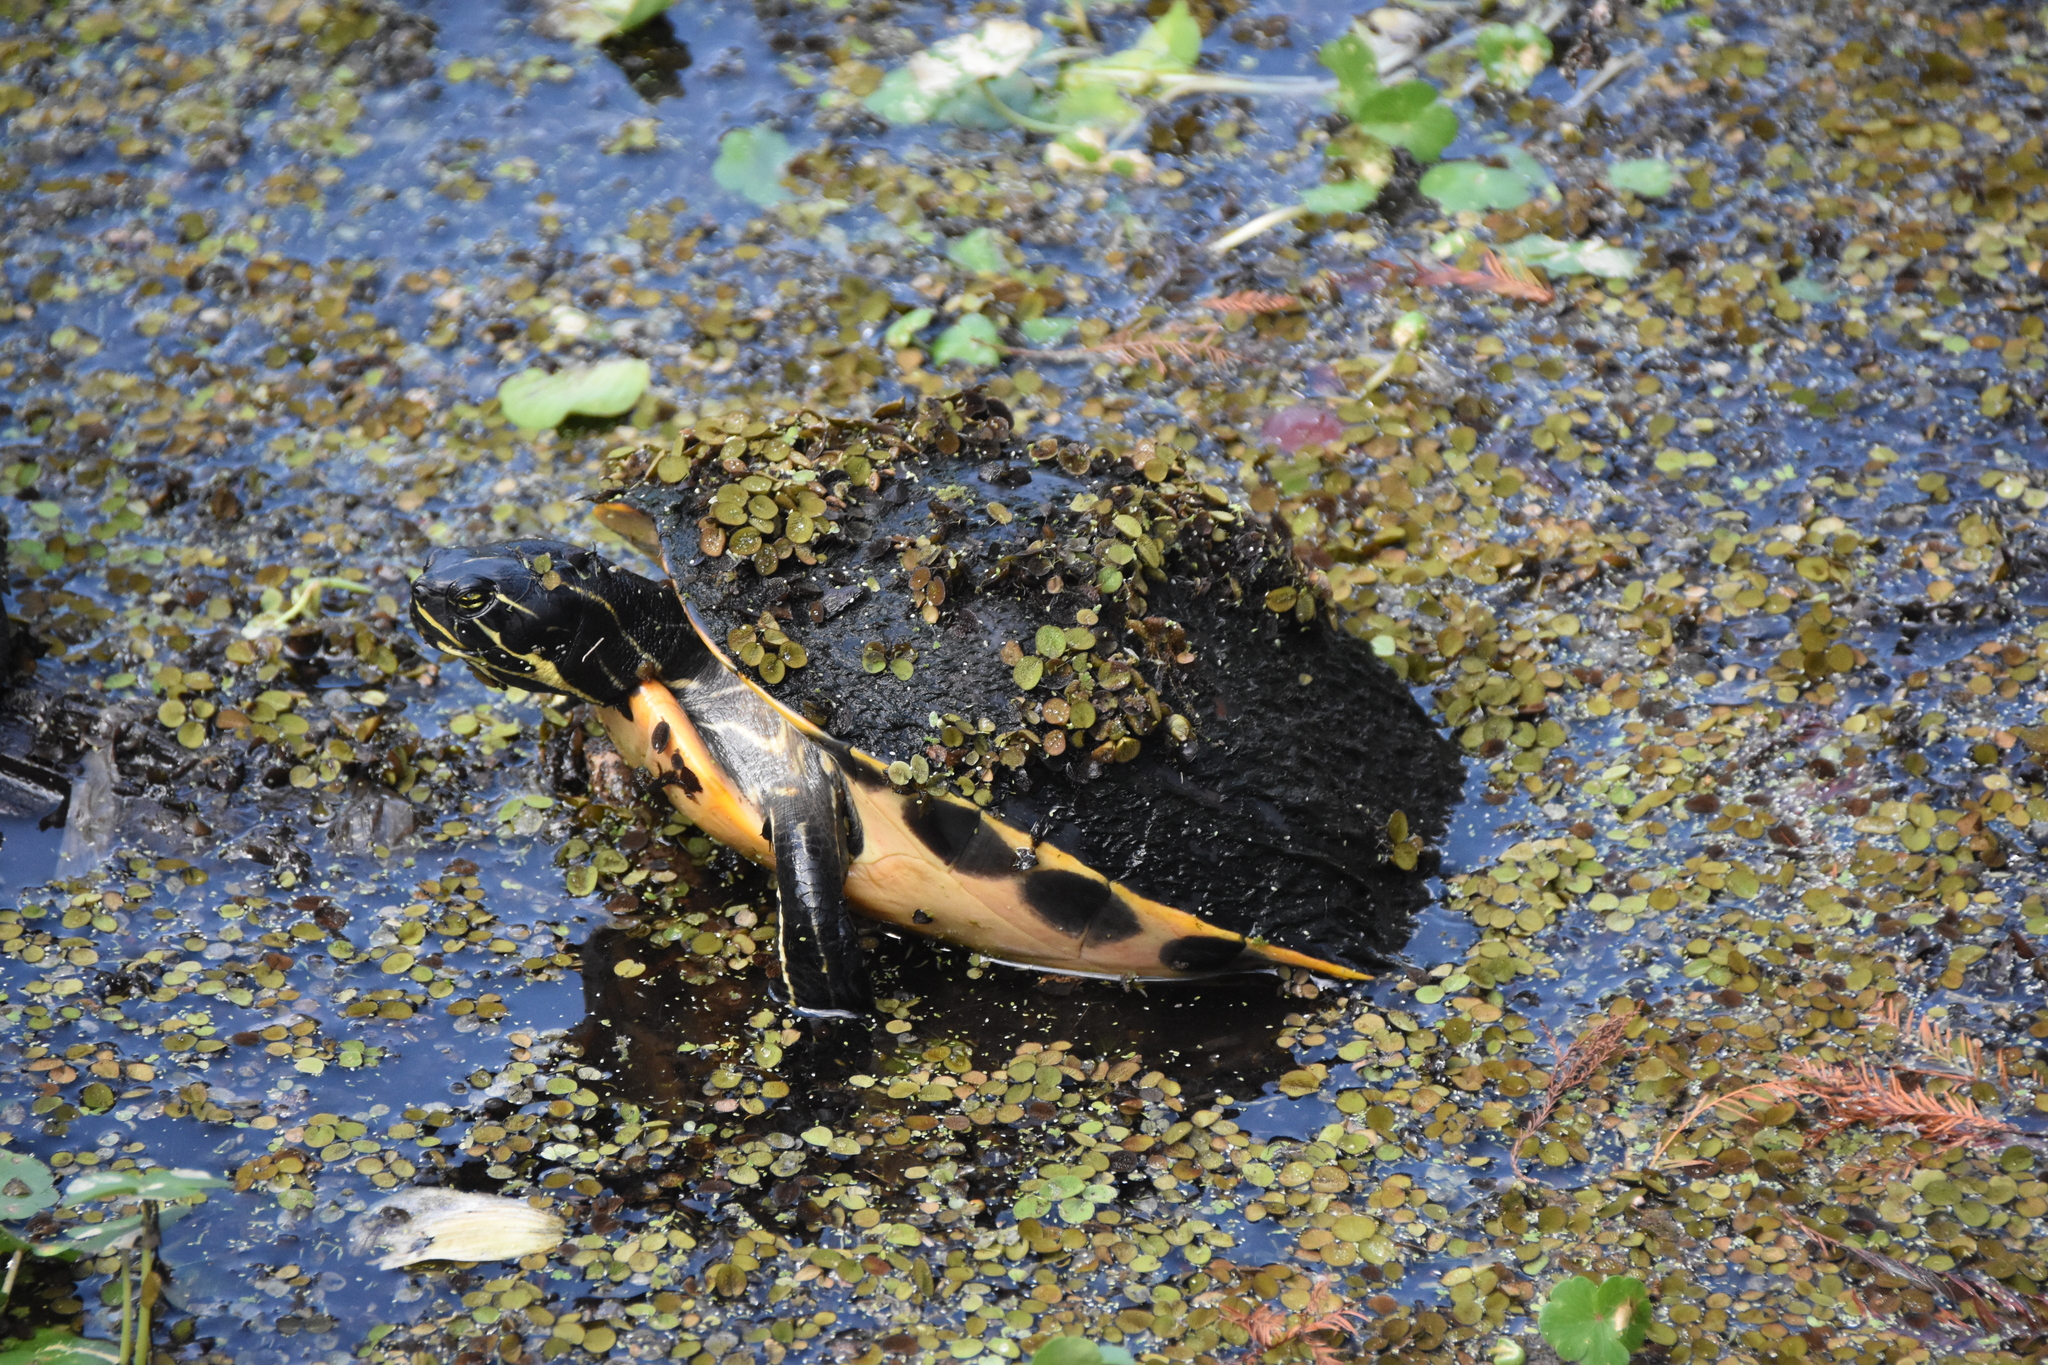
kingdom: Plantae
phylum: Tracheophyta
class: Polypodiopsida
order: Salviniales
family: Salviniaceae
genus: Salvinia
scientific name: Salvinia minima
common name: Water spangles
